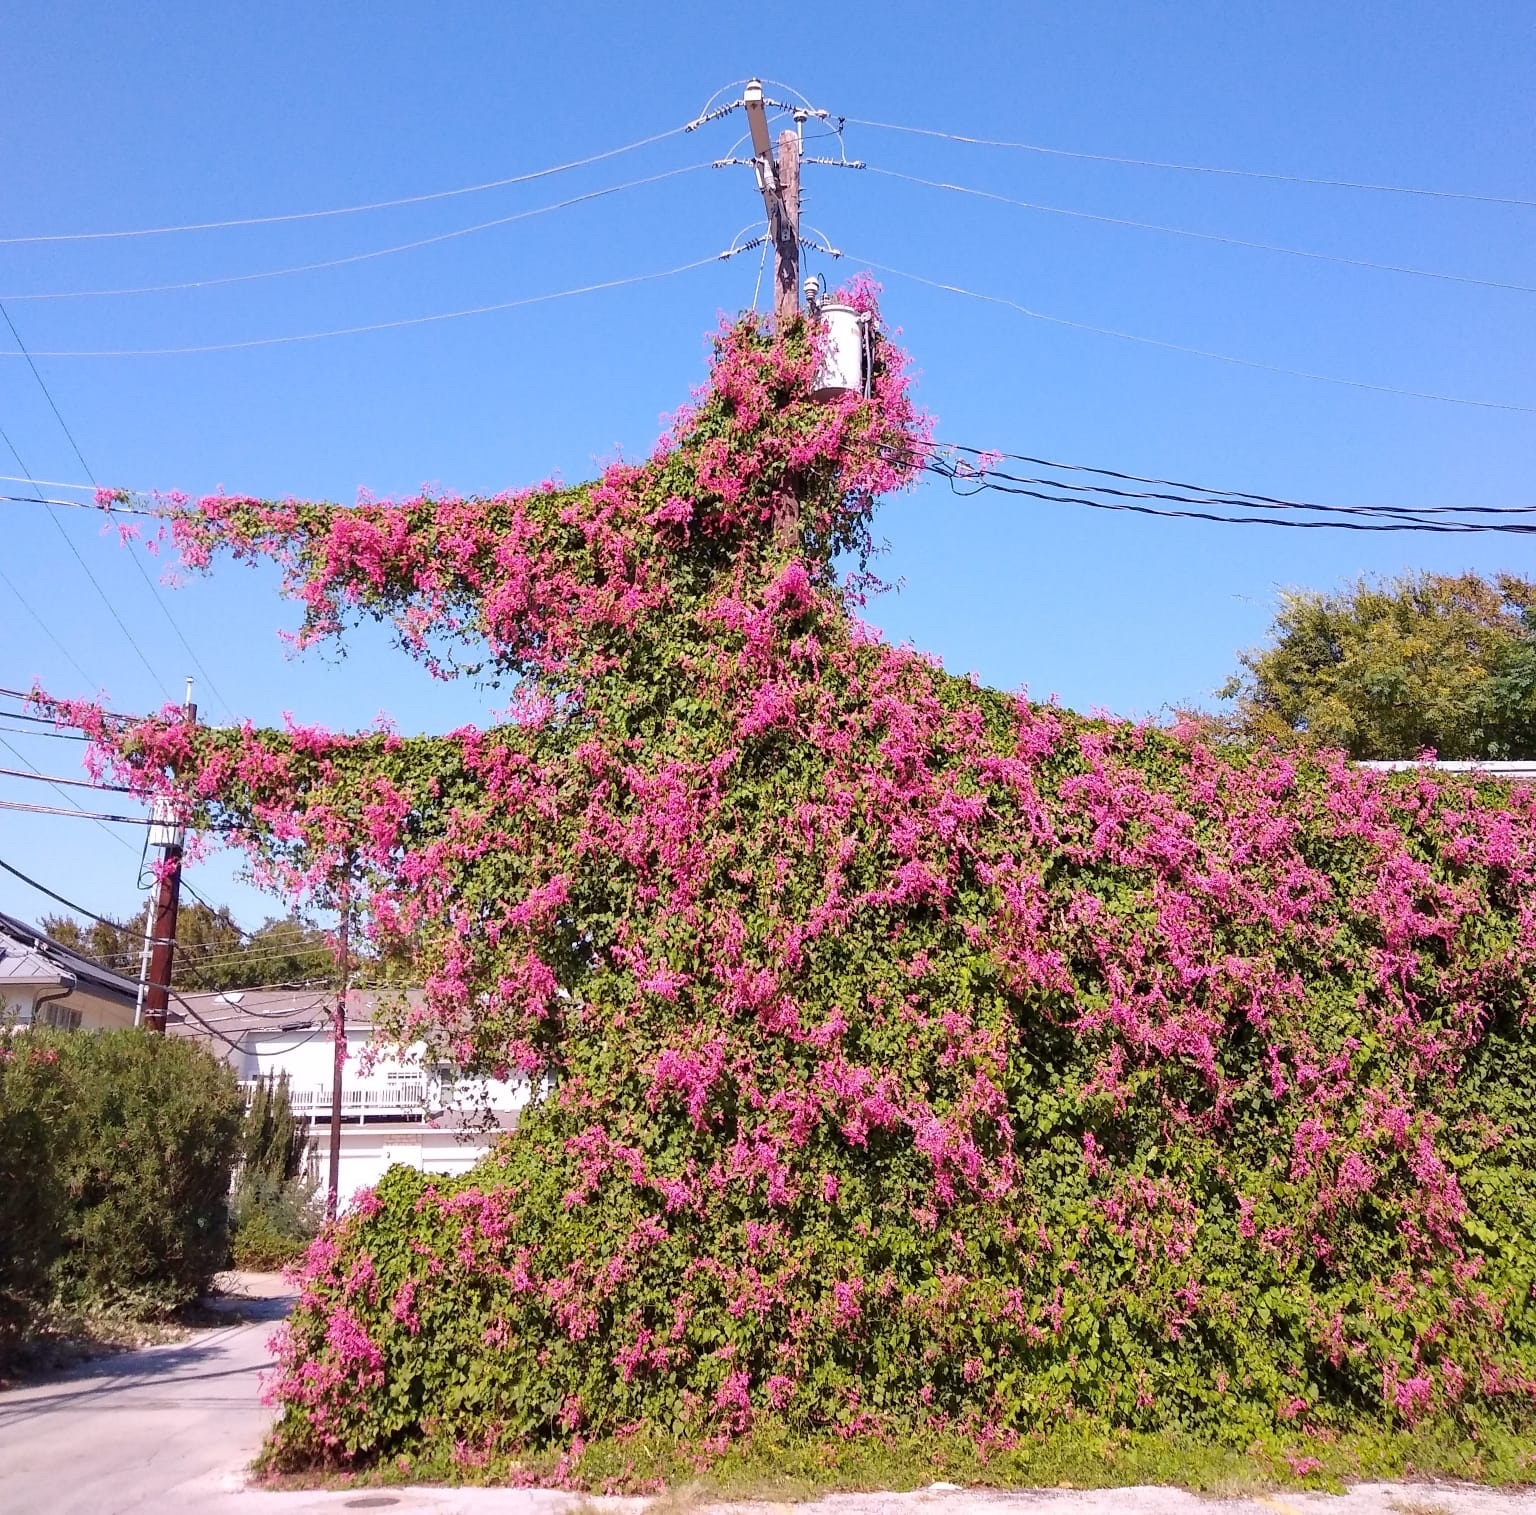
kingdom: Plantae
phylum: Tracheophyta
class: Magnoliopsida
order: Caryophyllales
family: Polygonaceae
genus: Antigonon
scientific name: Antigonon leptopus
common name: Coral vine
